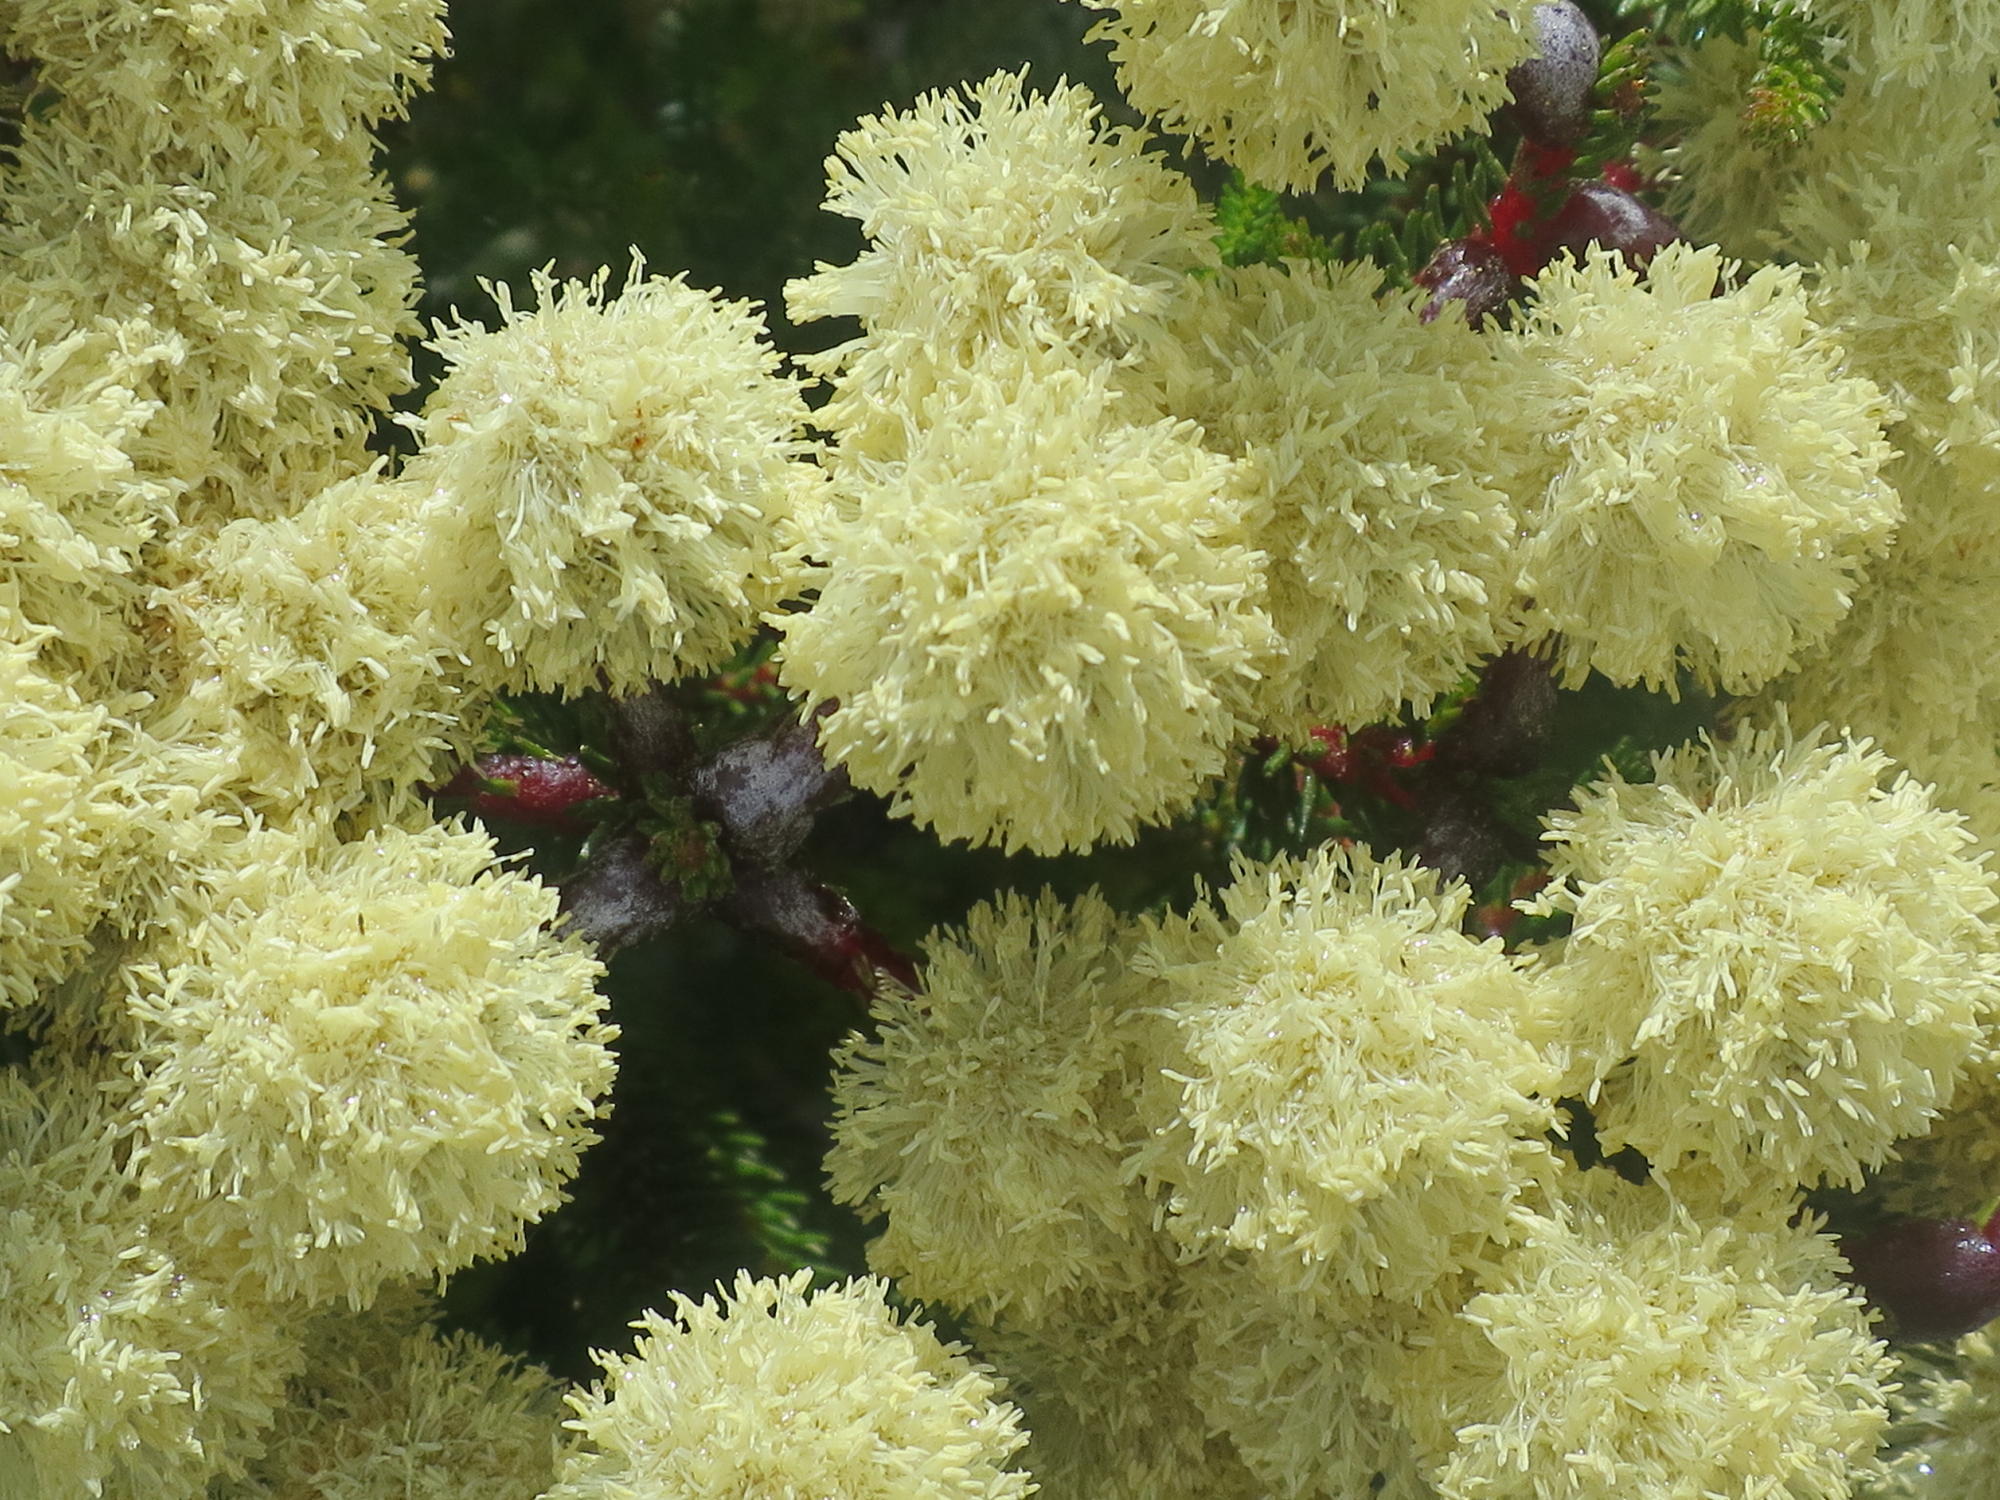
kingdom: Plantae
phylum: Tracheophyta
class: Magnoliopsida
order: Bruniales
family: Bruniaceae
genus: Berzelia
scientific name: Berzelia intermedia
